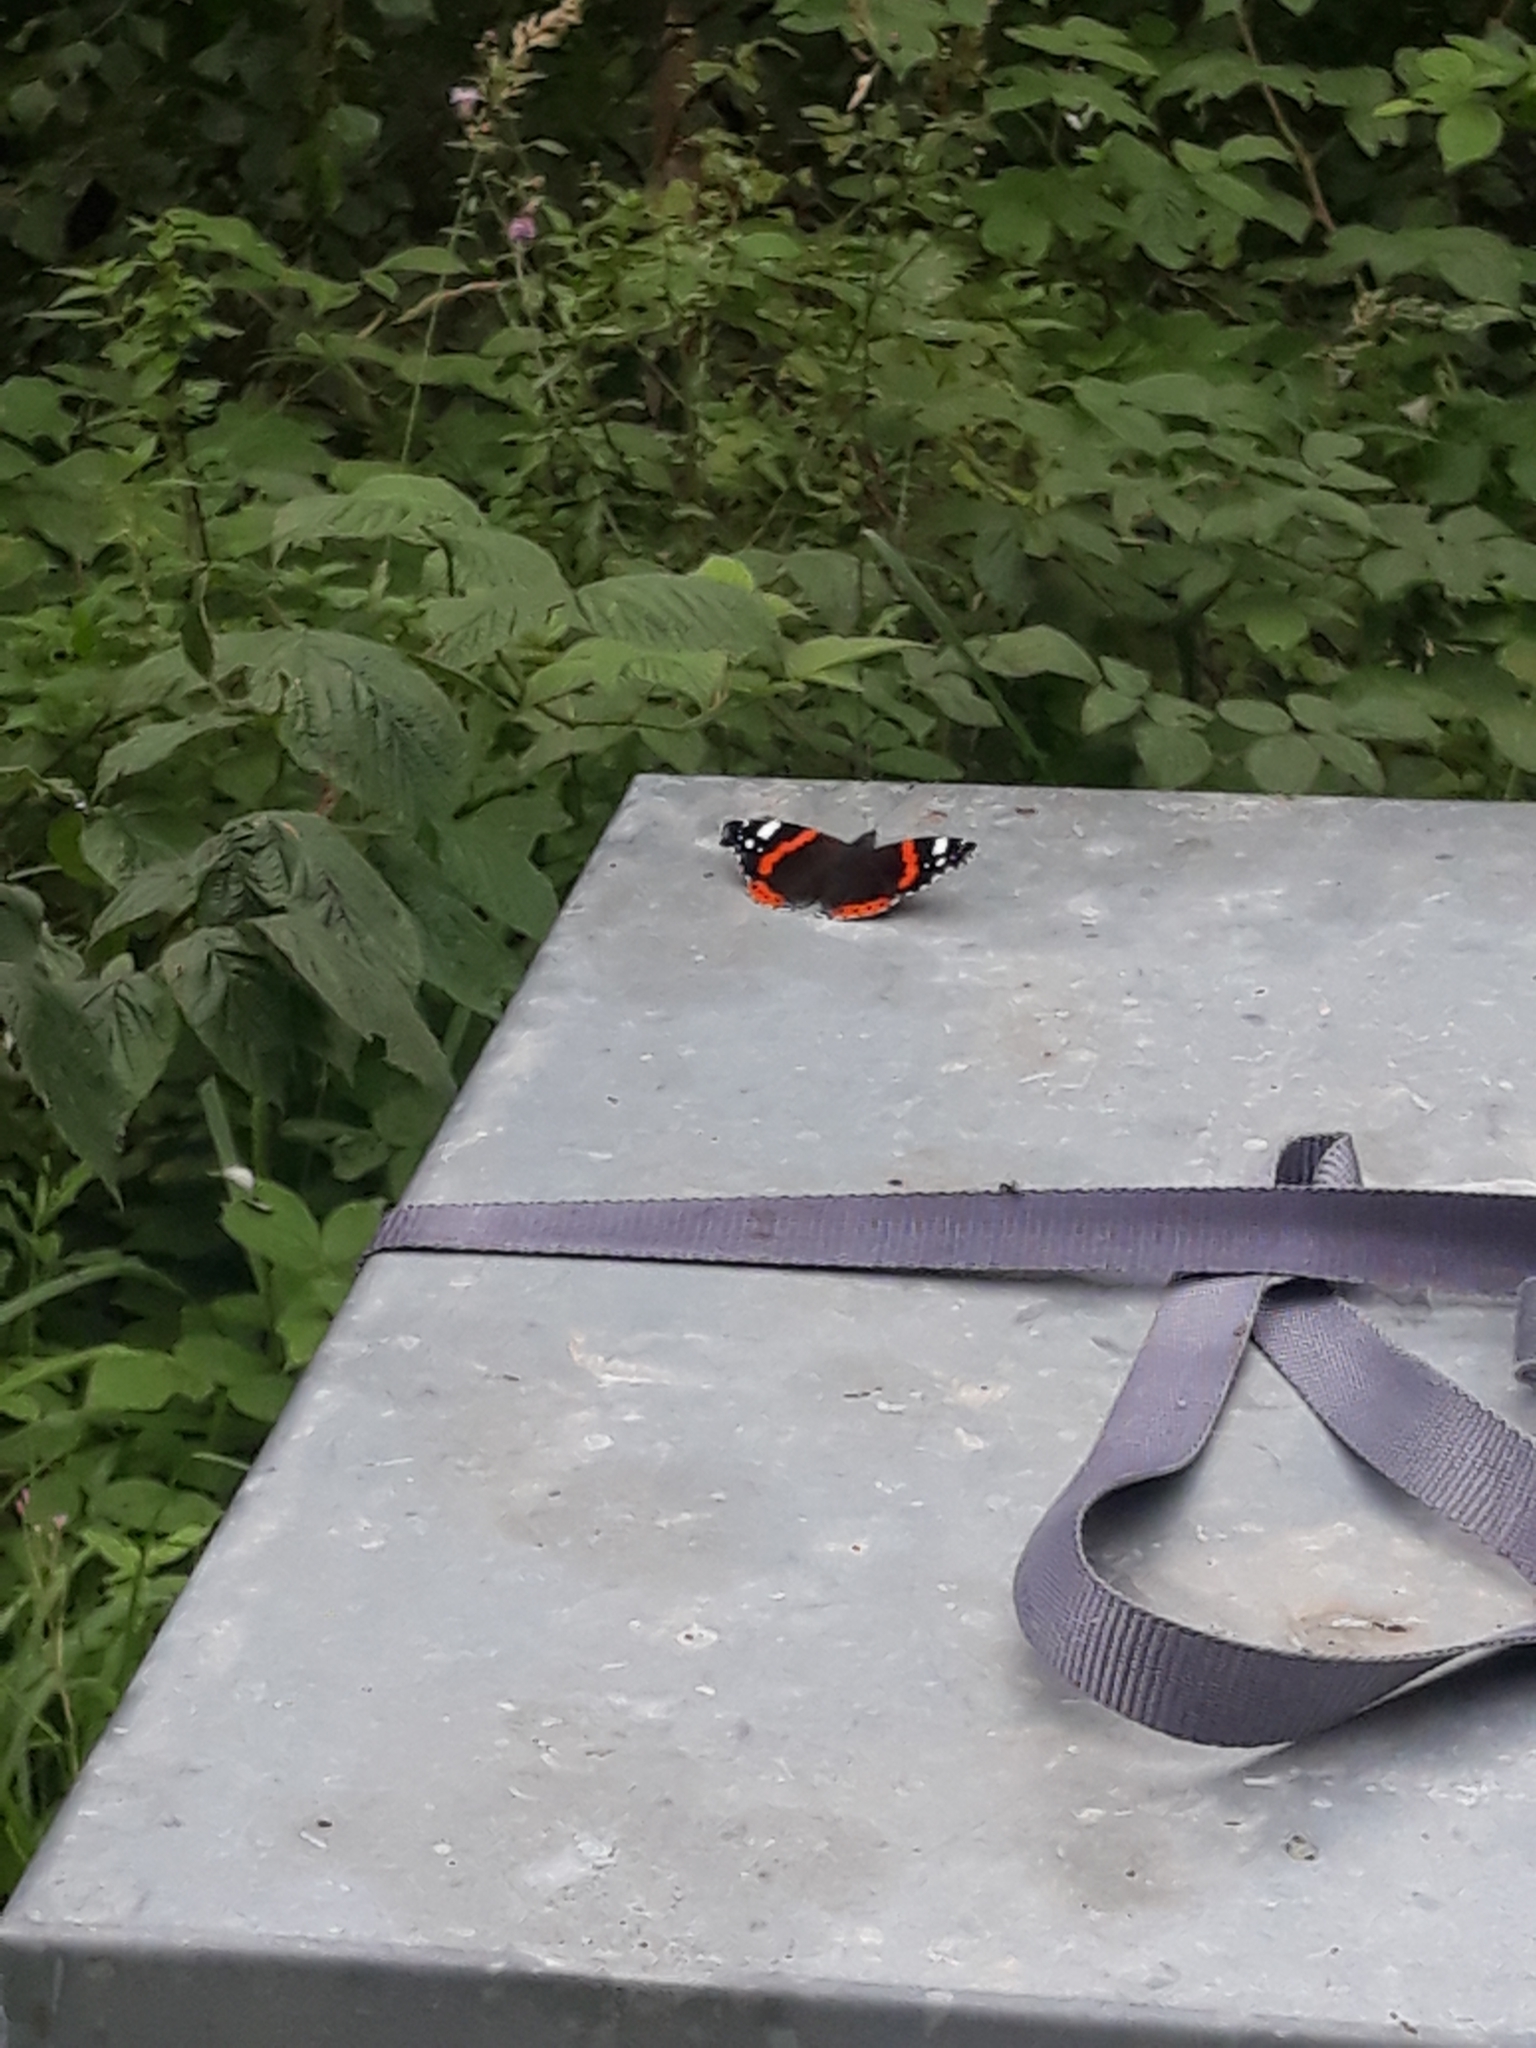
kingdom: Animalia
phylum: Arthropoda
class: Insecta
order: Lepidoptera
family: Nymphalidae
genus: Vanessa
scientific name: Vanessa atalanta
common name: Red admiral
